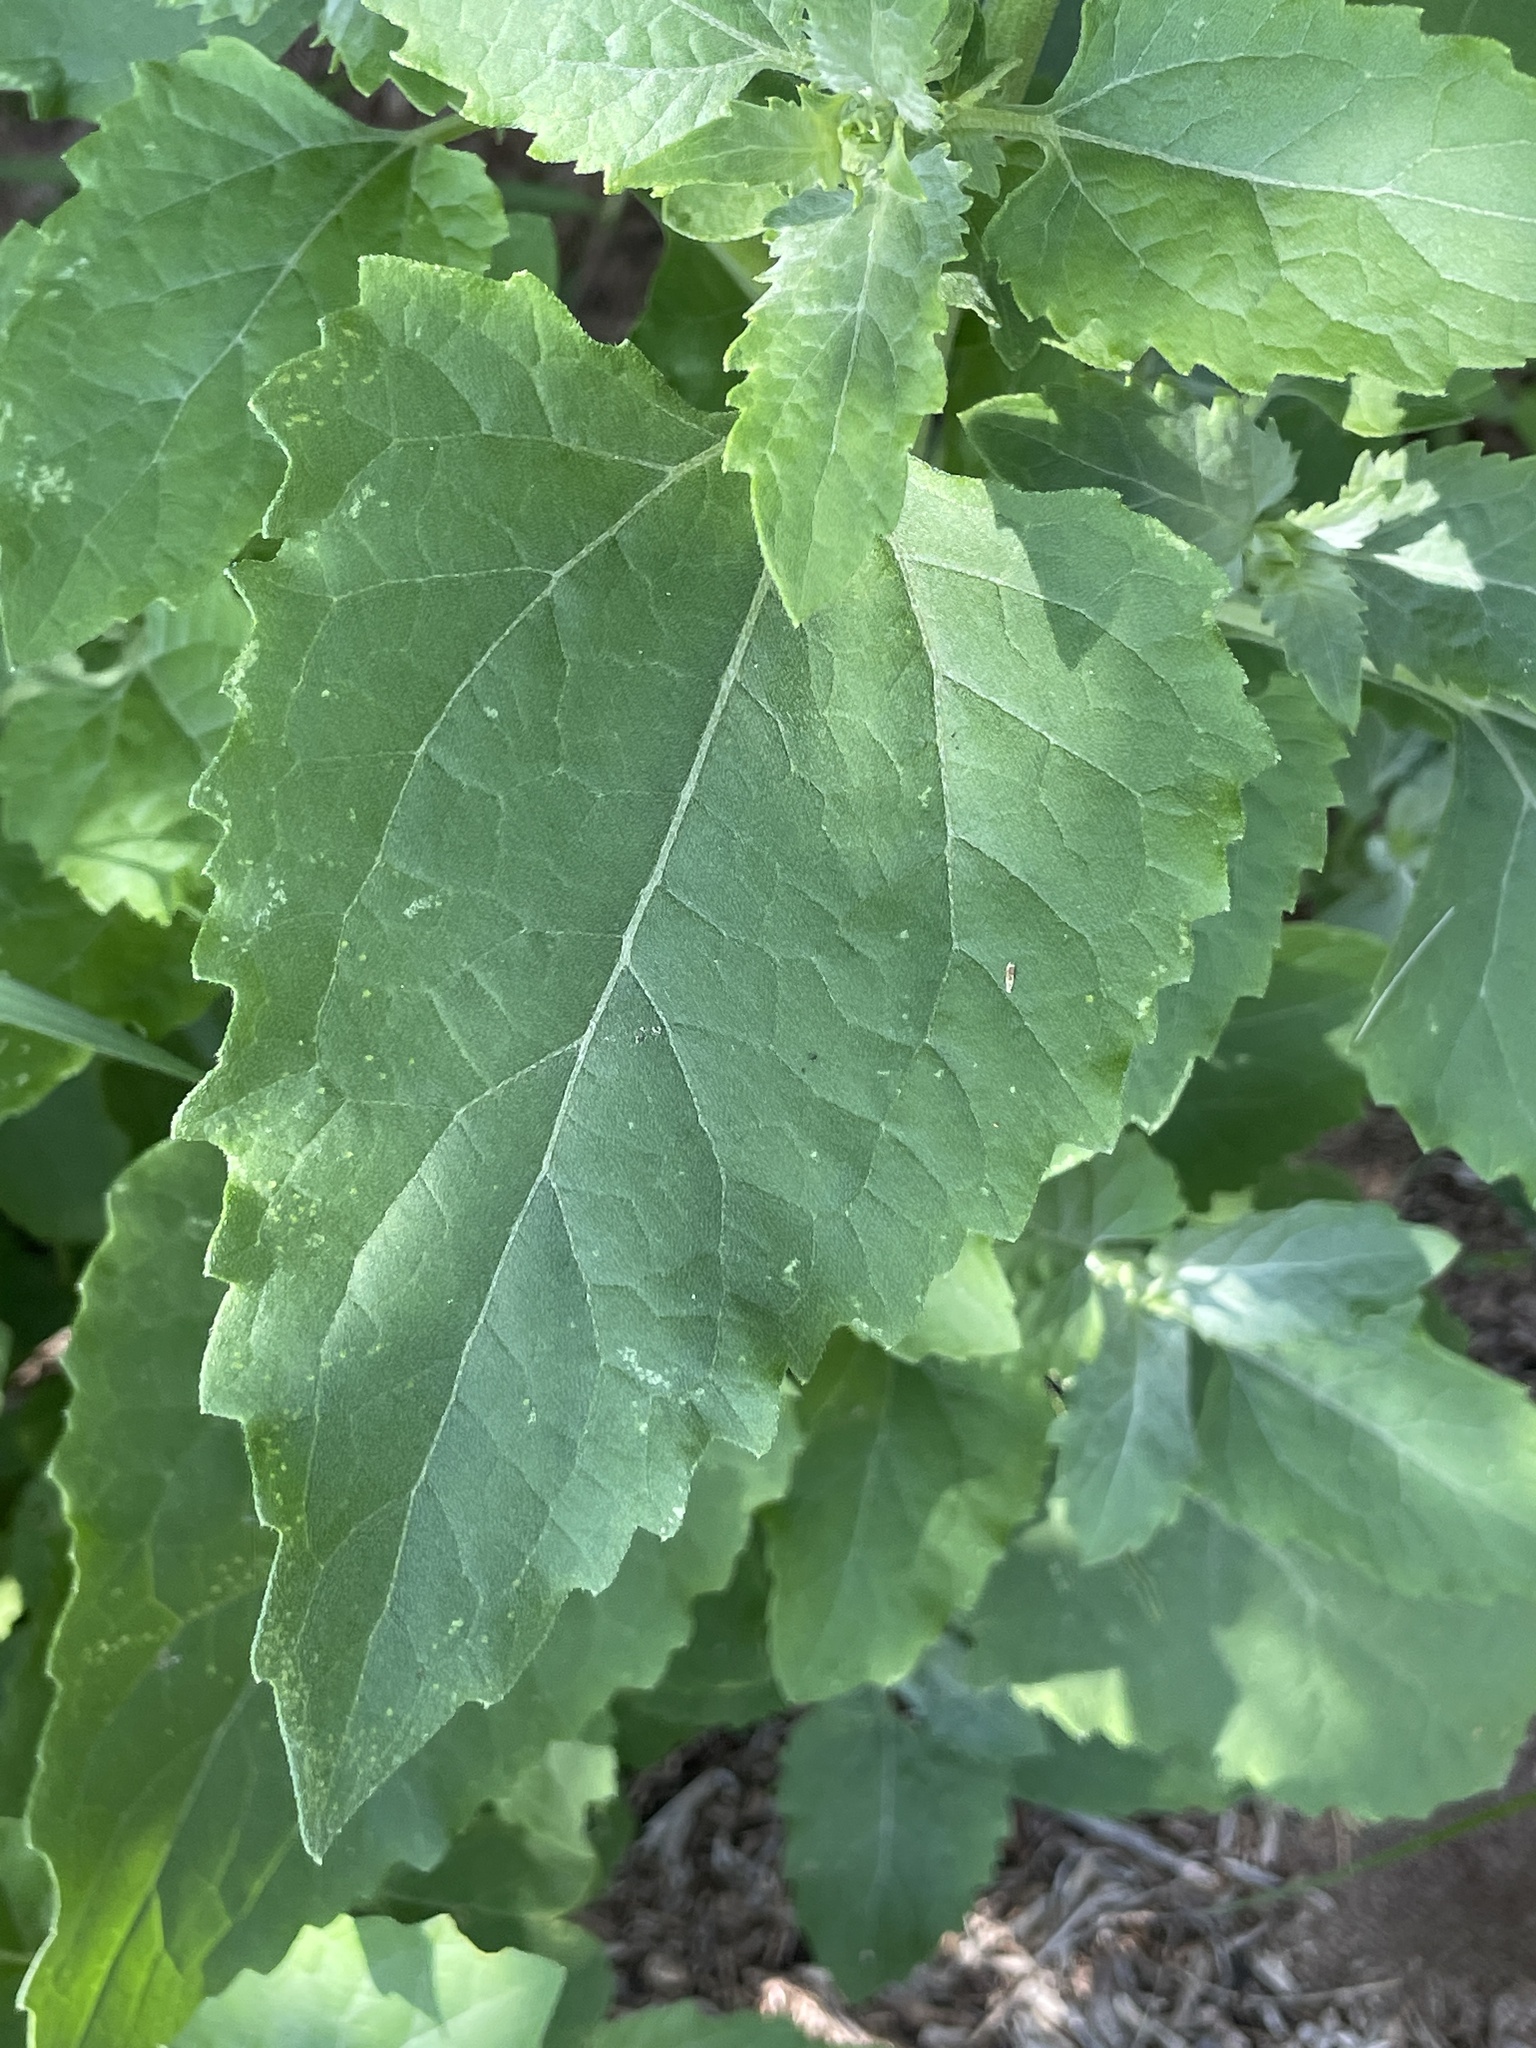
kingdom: Plantae
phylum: Tracheophyta
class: Magnoliopsida
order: Asterales
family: Asteraceae
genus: Verbesina
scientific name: Verbesina encelioides
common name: Golden crownbeard
